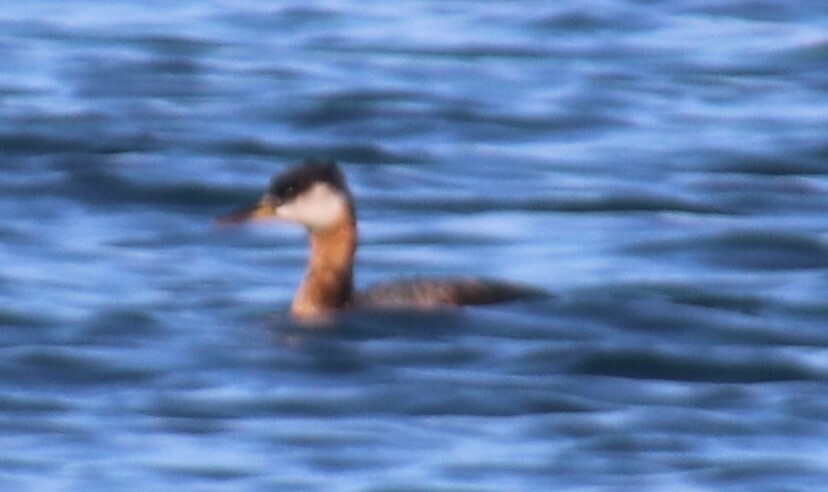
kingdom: Animalia
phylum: Chordata
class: Aves
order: Podicipediformes
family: Podicipedidae
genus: Podiceps
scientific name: Podiceps grisegena
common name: Red-necked grebe
